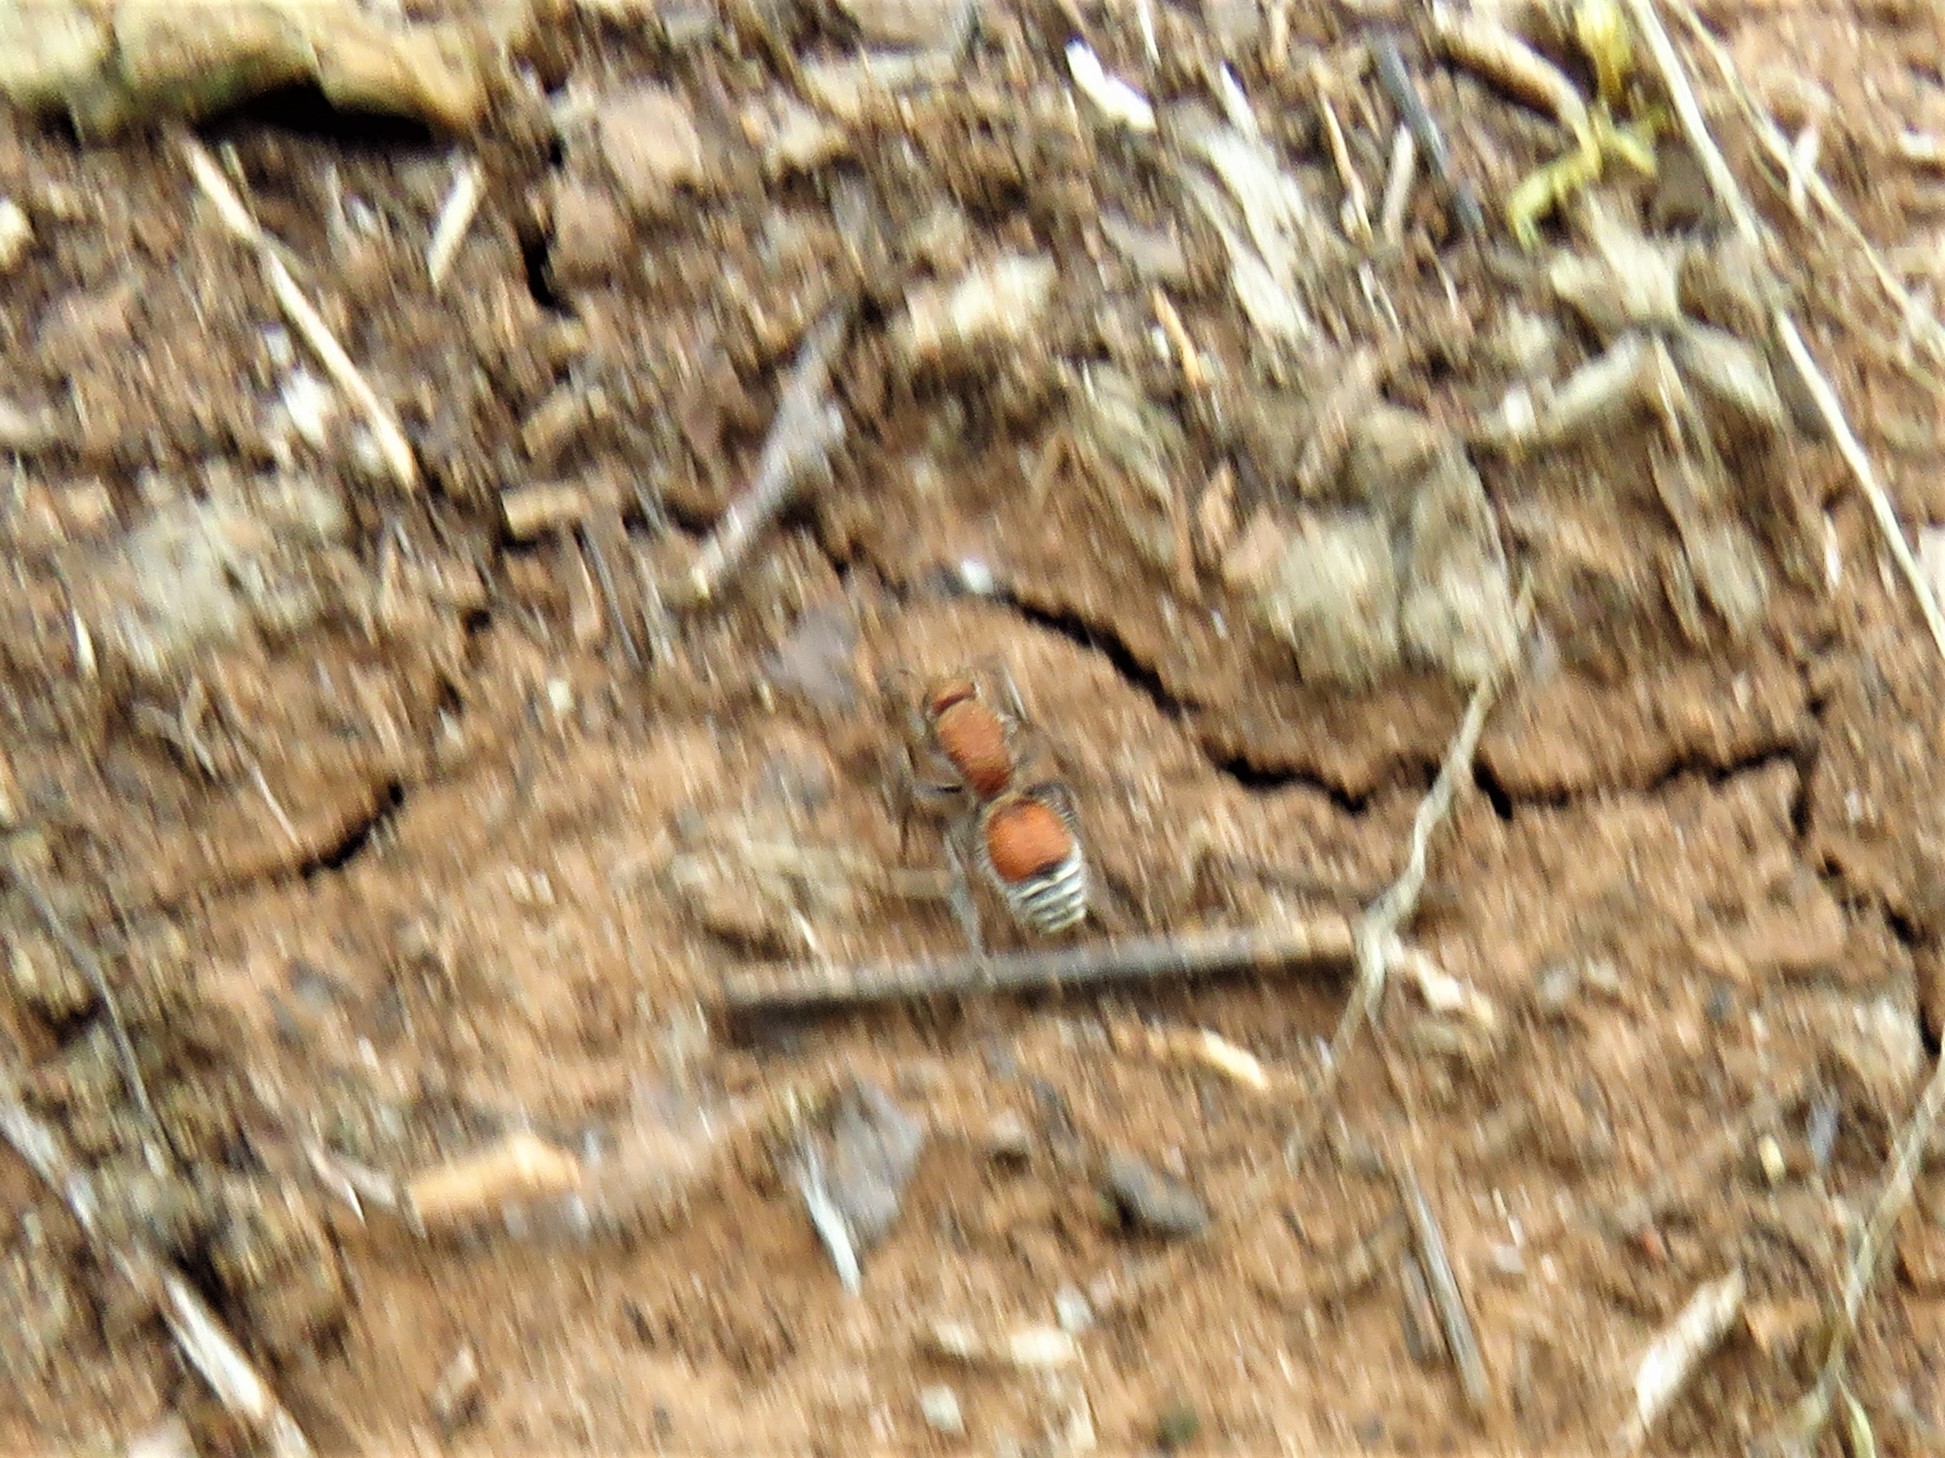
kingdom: Animalia
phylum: Arthropoda
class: Insecta
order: Hymenoptera
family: Mutillidae
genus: Dasymutilla
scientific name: Dasymutilla
